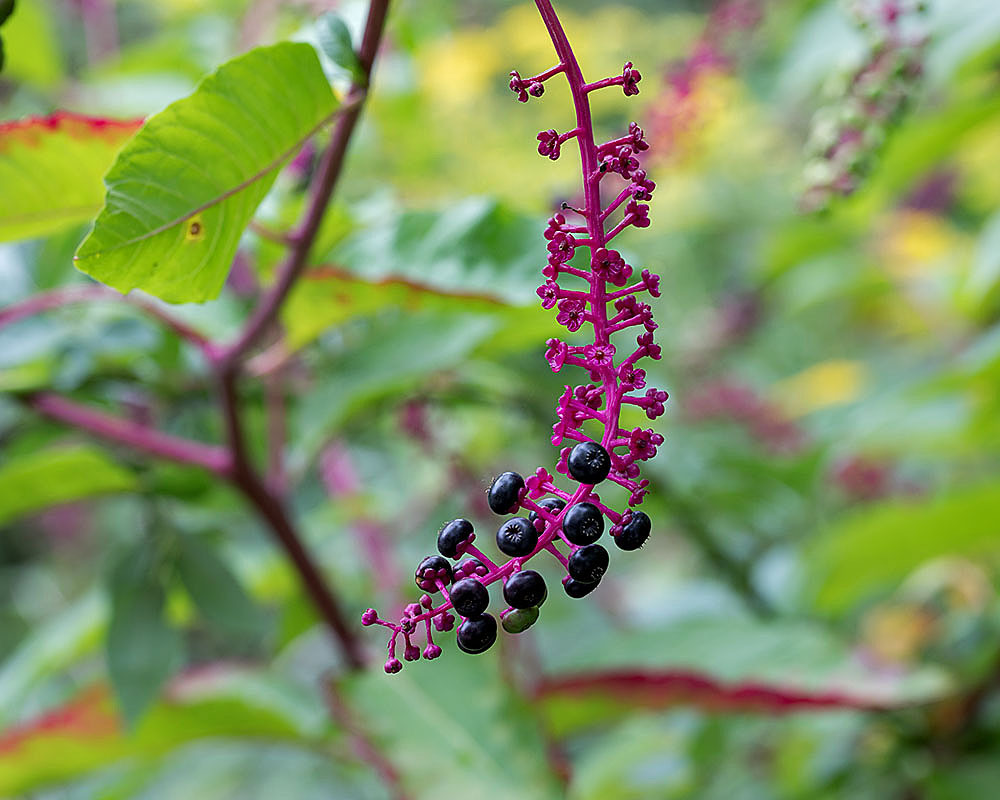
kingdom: Plantae
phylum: Tracheophyta
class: Magnoliopsida
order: Caryophyllales
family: Phytolaccaceae
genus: Phytolacca
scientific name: Phytolacca americana
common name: American pokeweed
